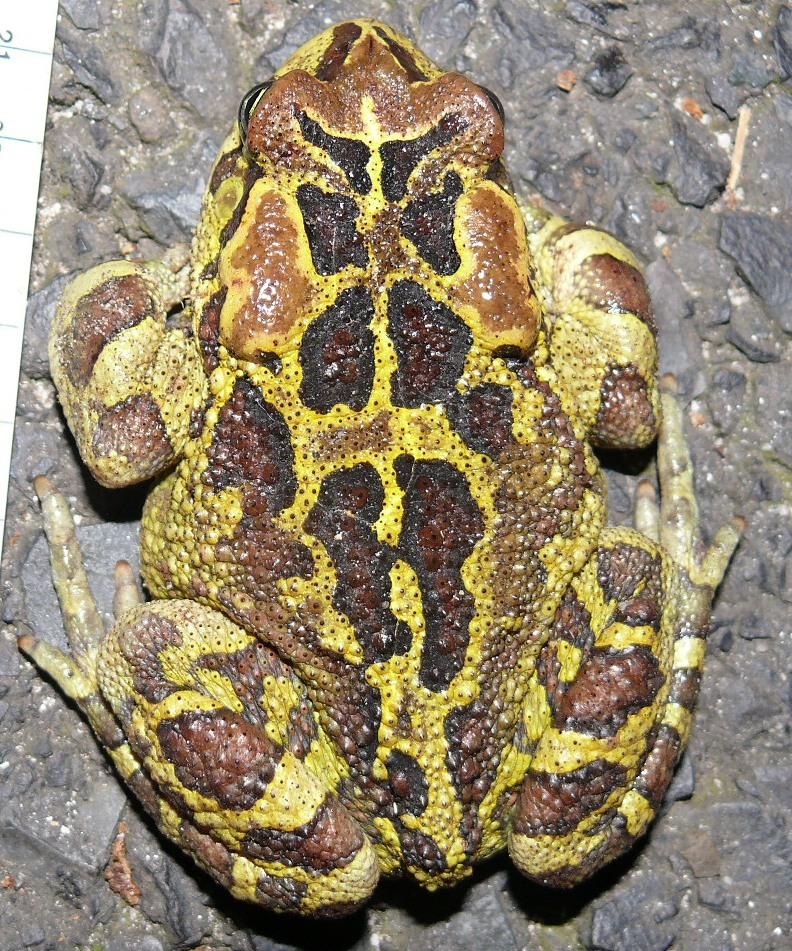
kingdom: Animalia
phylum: Chordata
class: Amphibia
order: Anura
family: Bufonidae
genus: Sclerophrys
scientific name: Sclerophrys pantherina
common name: Panther toad
